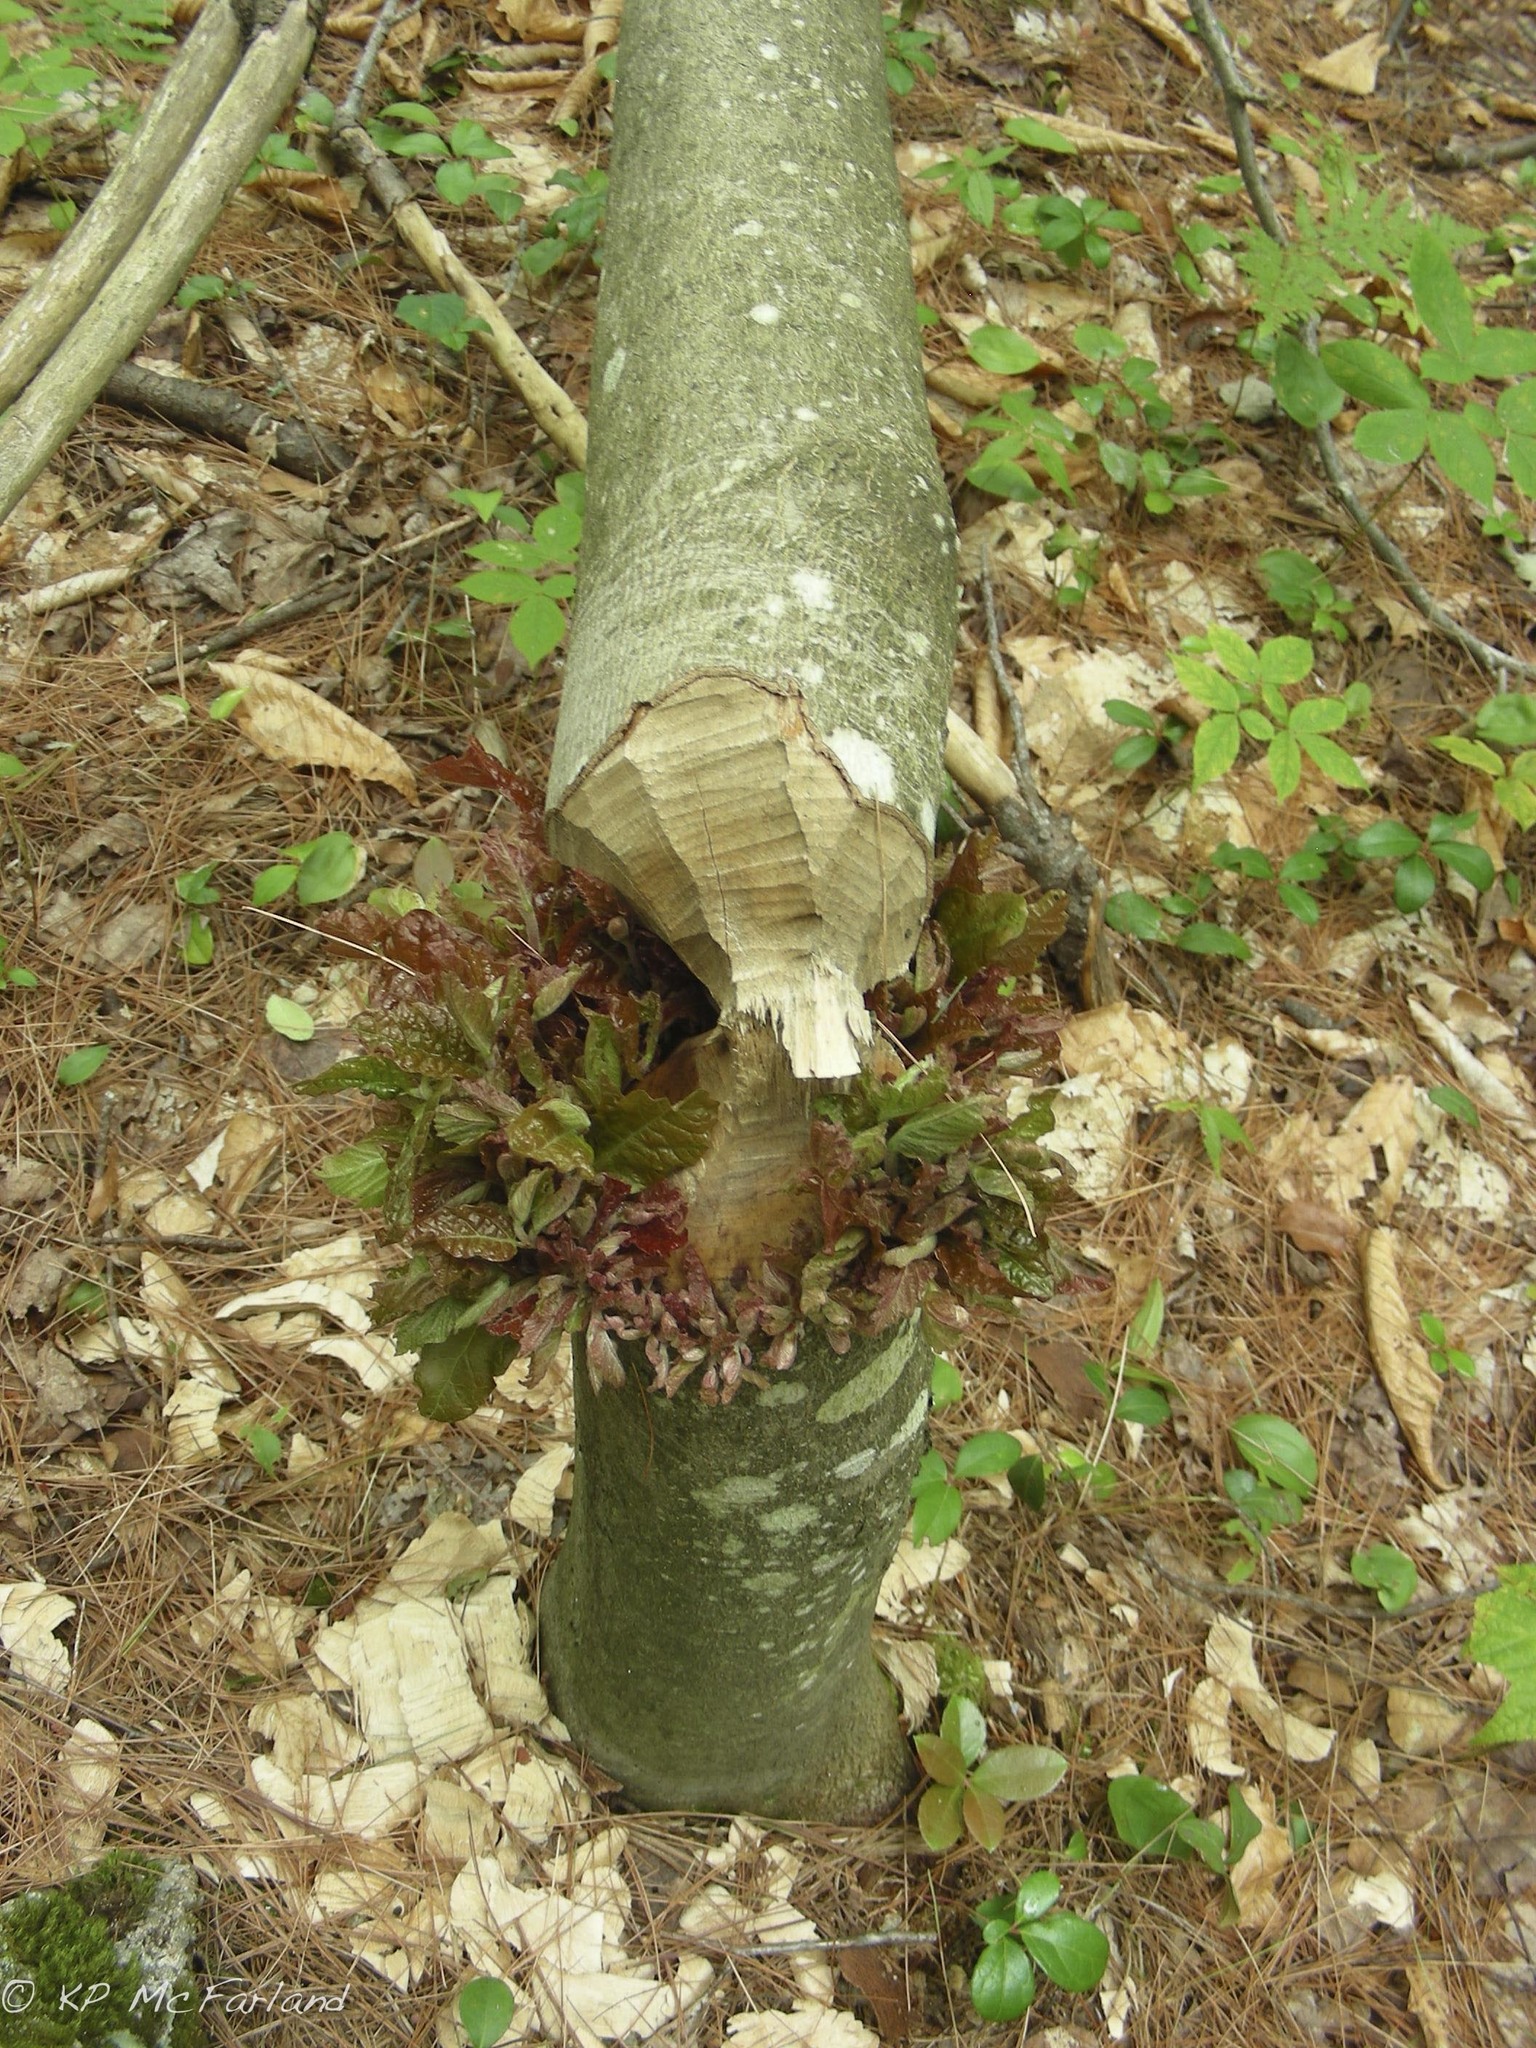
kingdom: Animalia
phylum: Chordata
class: Mammalia
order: Rodentia
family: Castoridae
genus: Castor
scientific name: Castor canadensis
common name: American beaver
